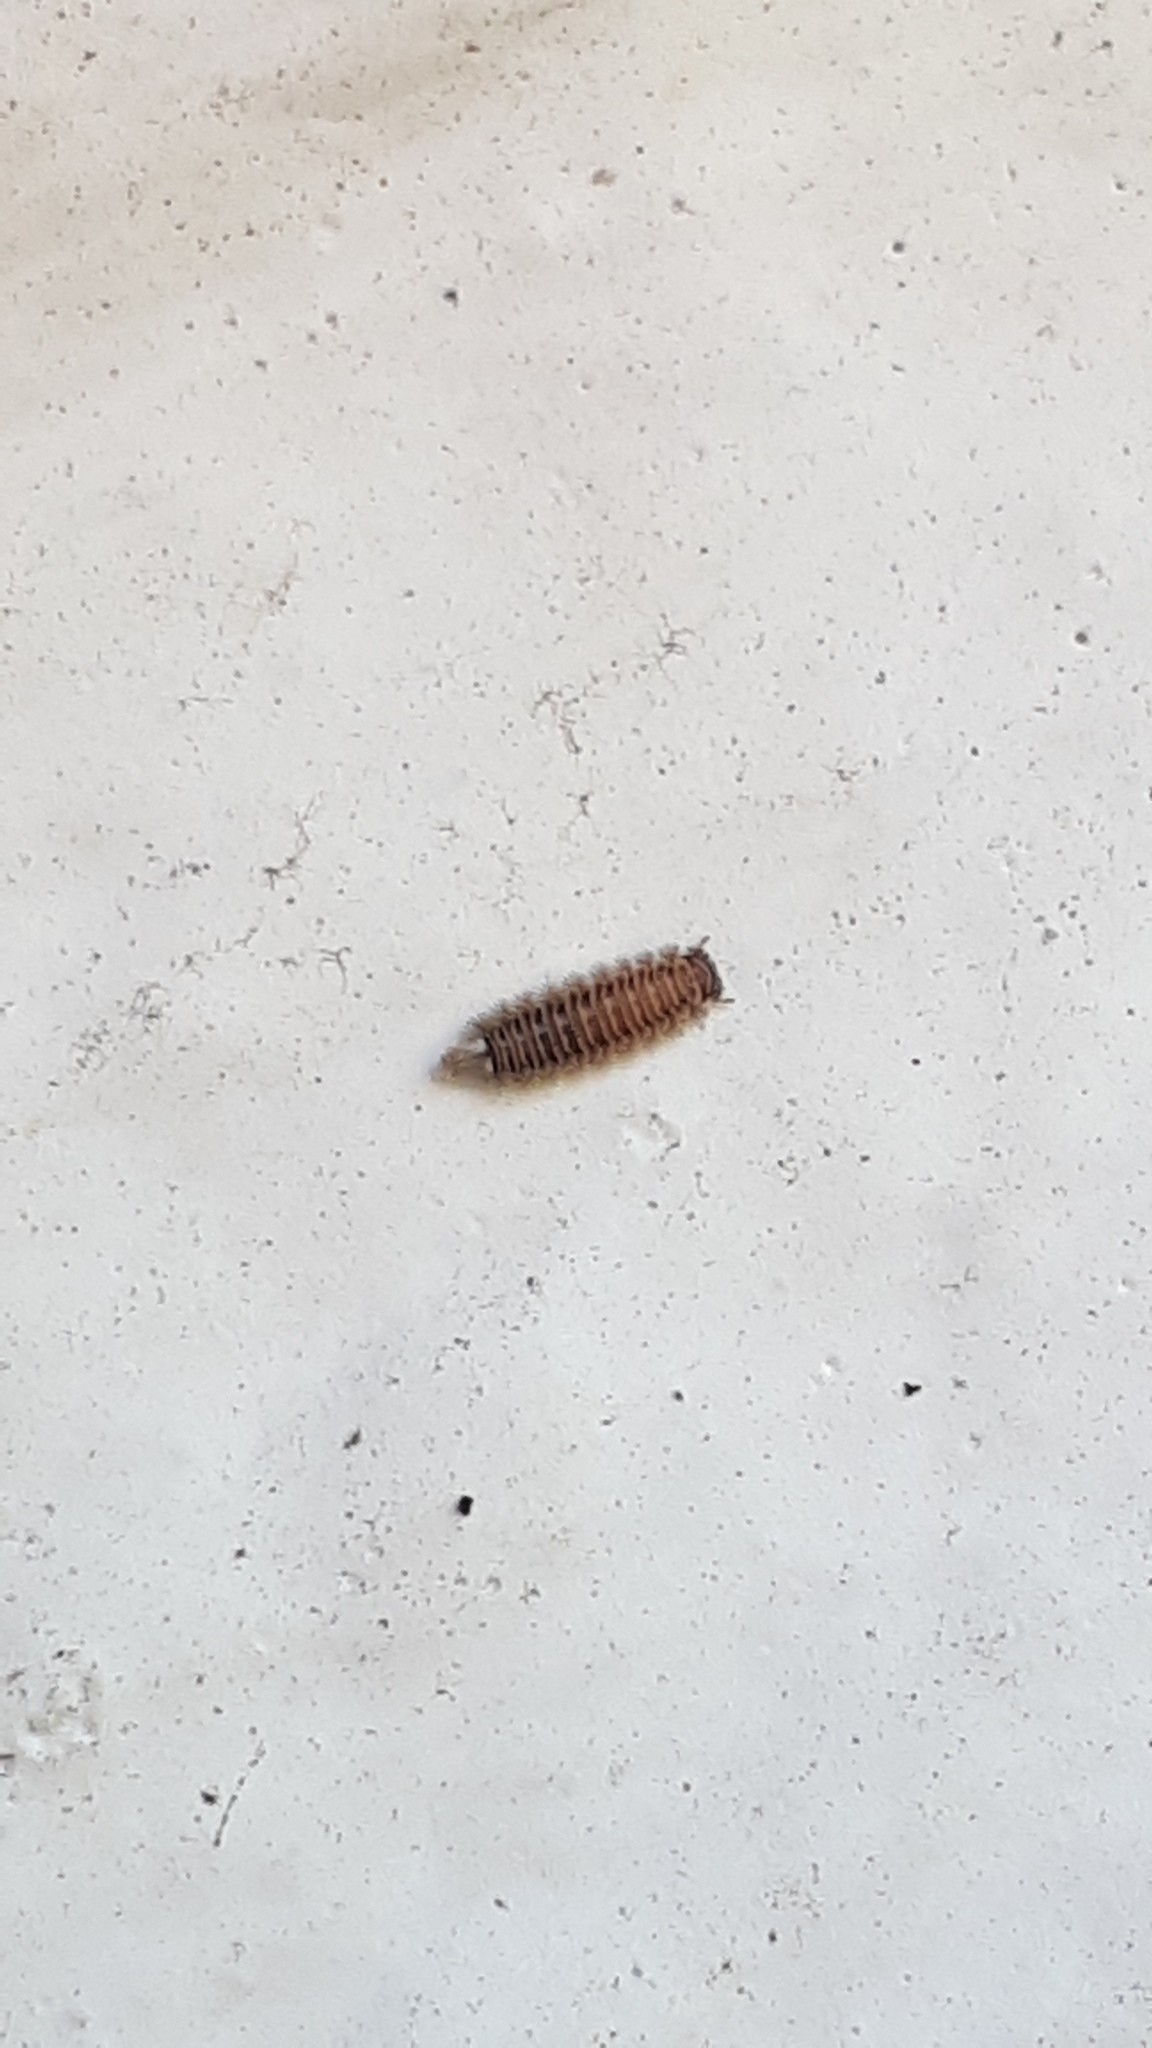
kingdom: Animalia
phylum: Arthropoda
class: Diplopoda
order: Polyxenida
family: Polyxenidae
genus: Polyxenus
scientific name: Polyxenus lagurus
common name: Bristly millipede
